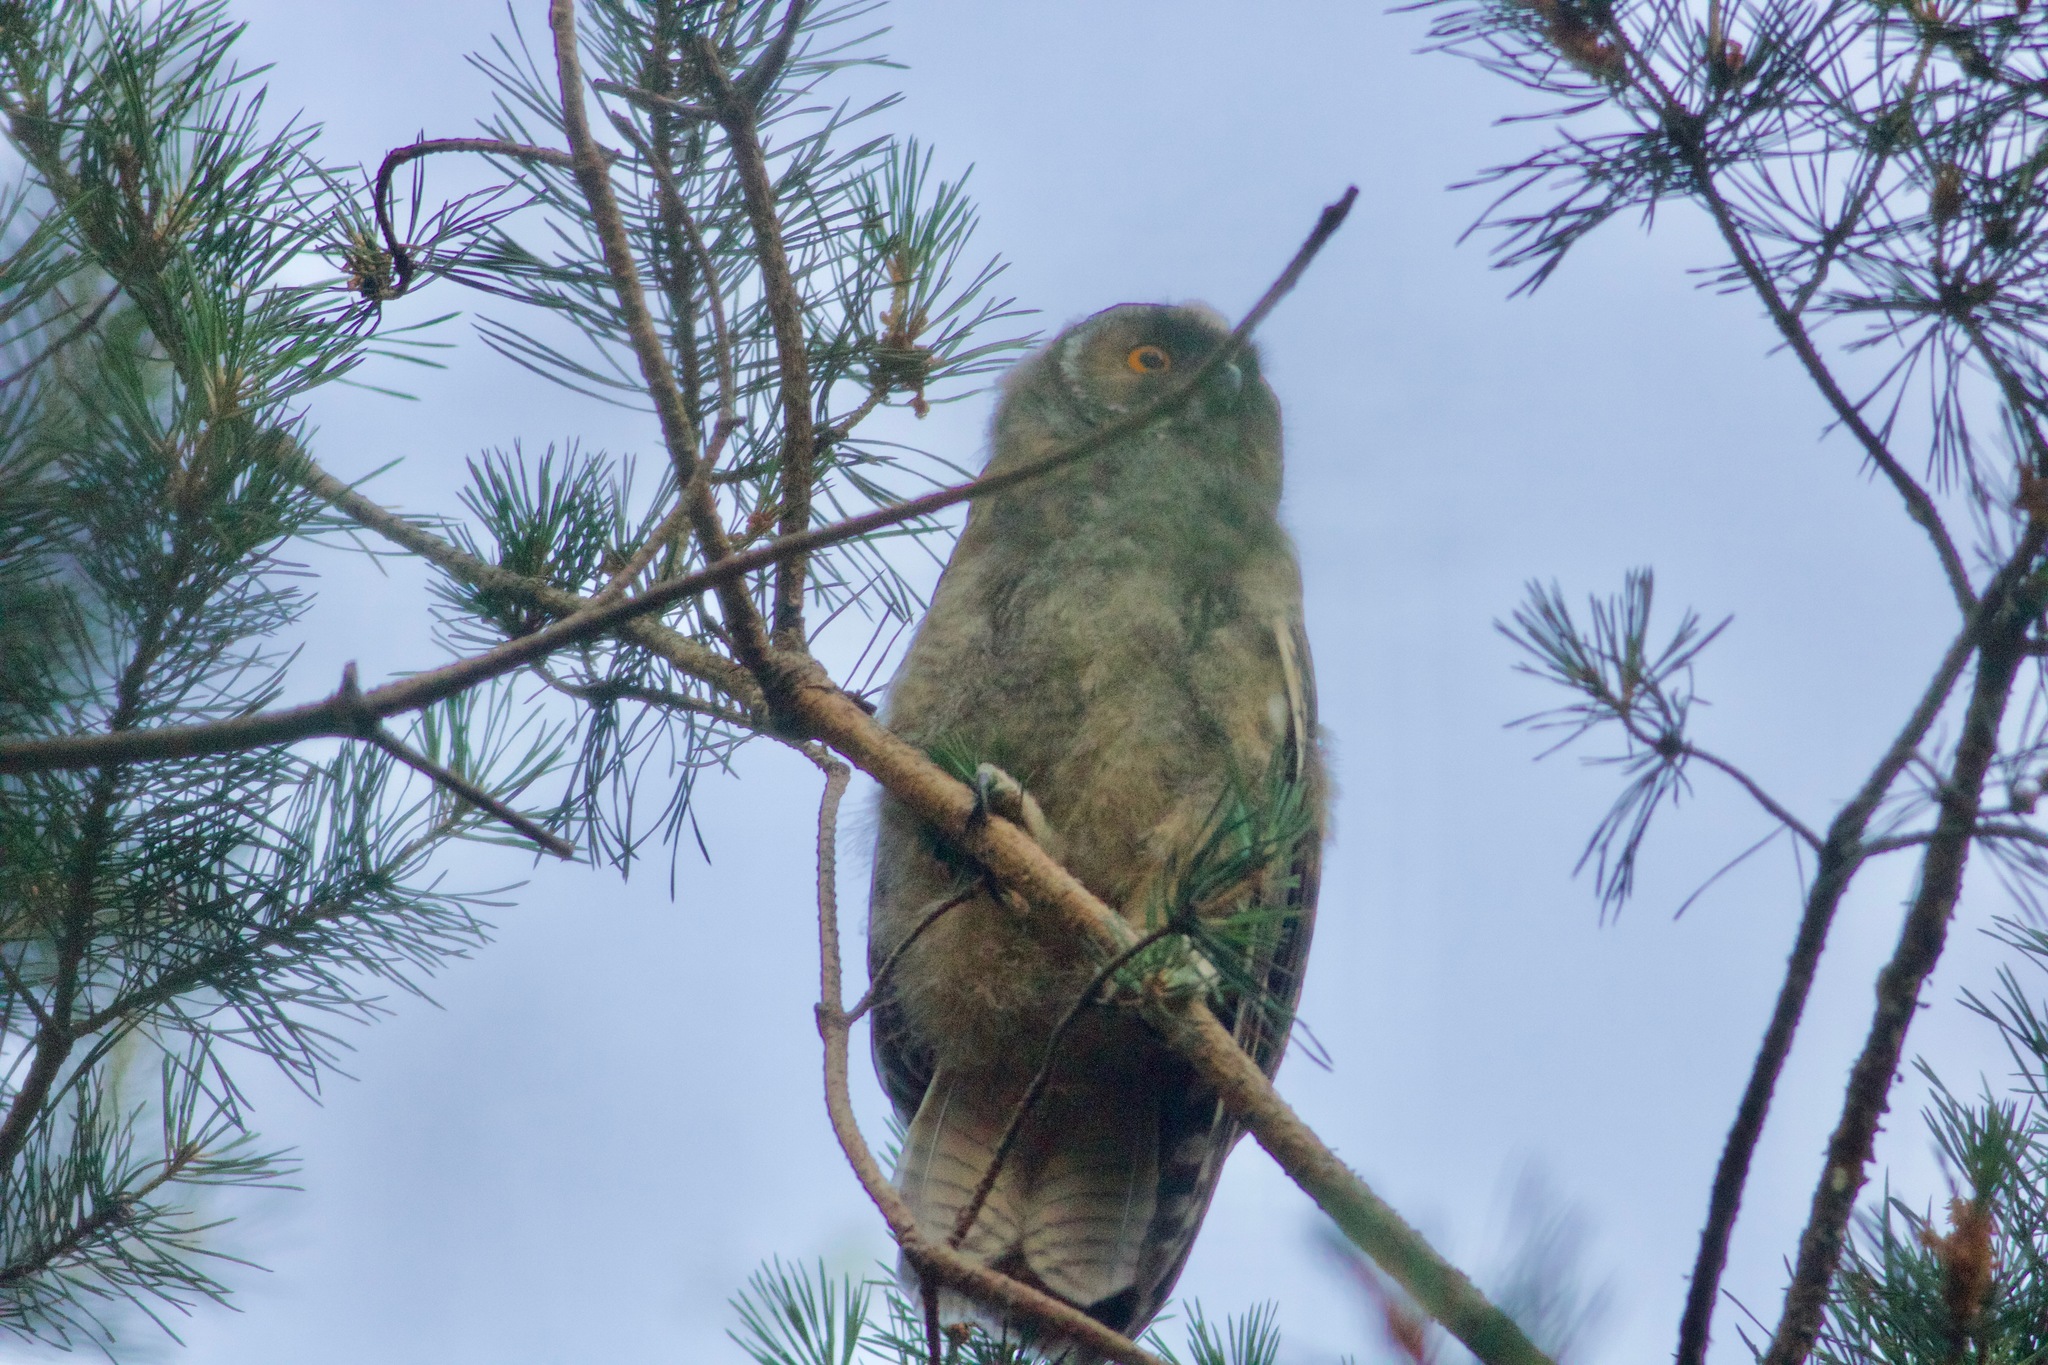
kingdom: Animalia
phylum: Chordata
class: Aves
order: Strigiformes
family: Strigidae
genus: Asio
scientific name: Asio otus
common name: Long-eared owl
